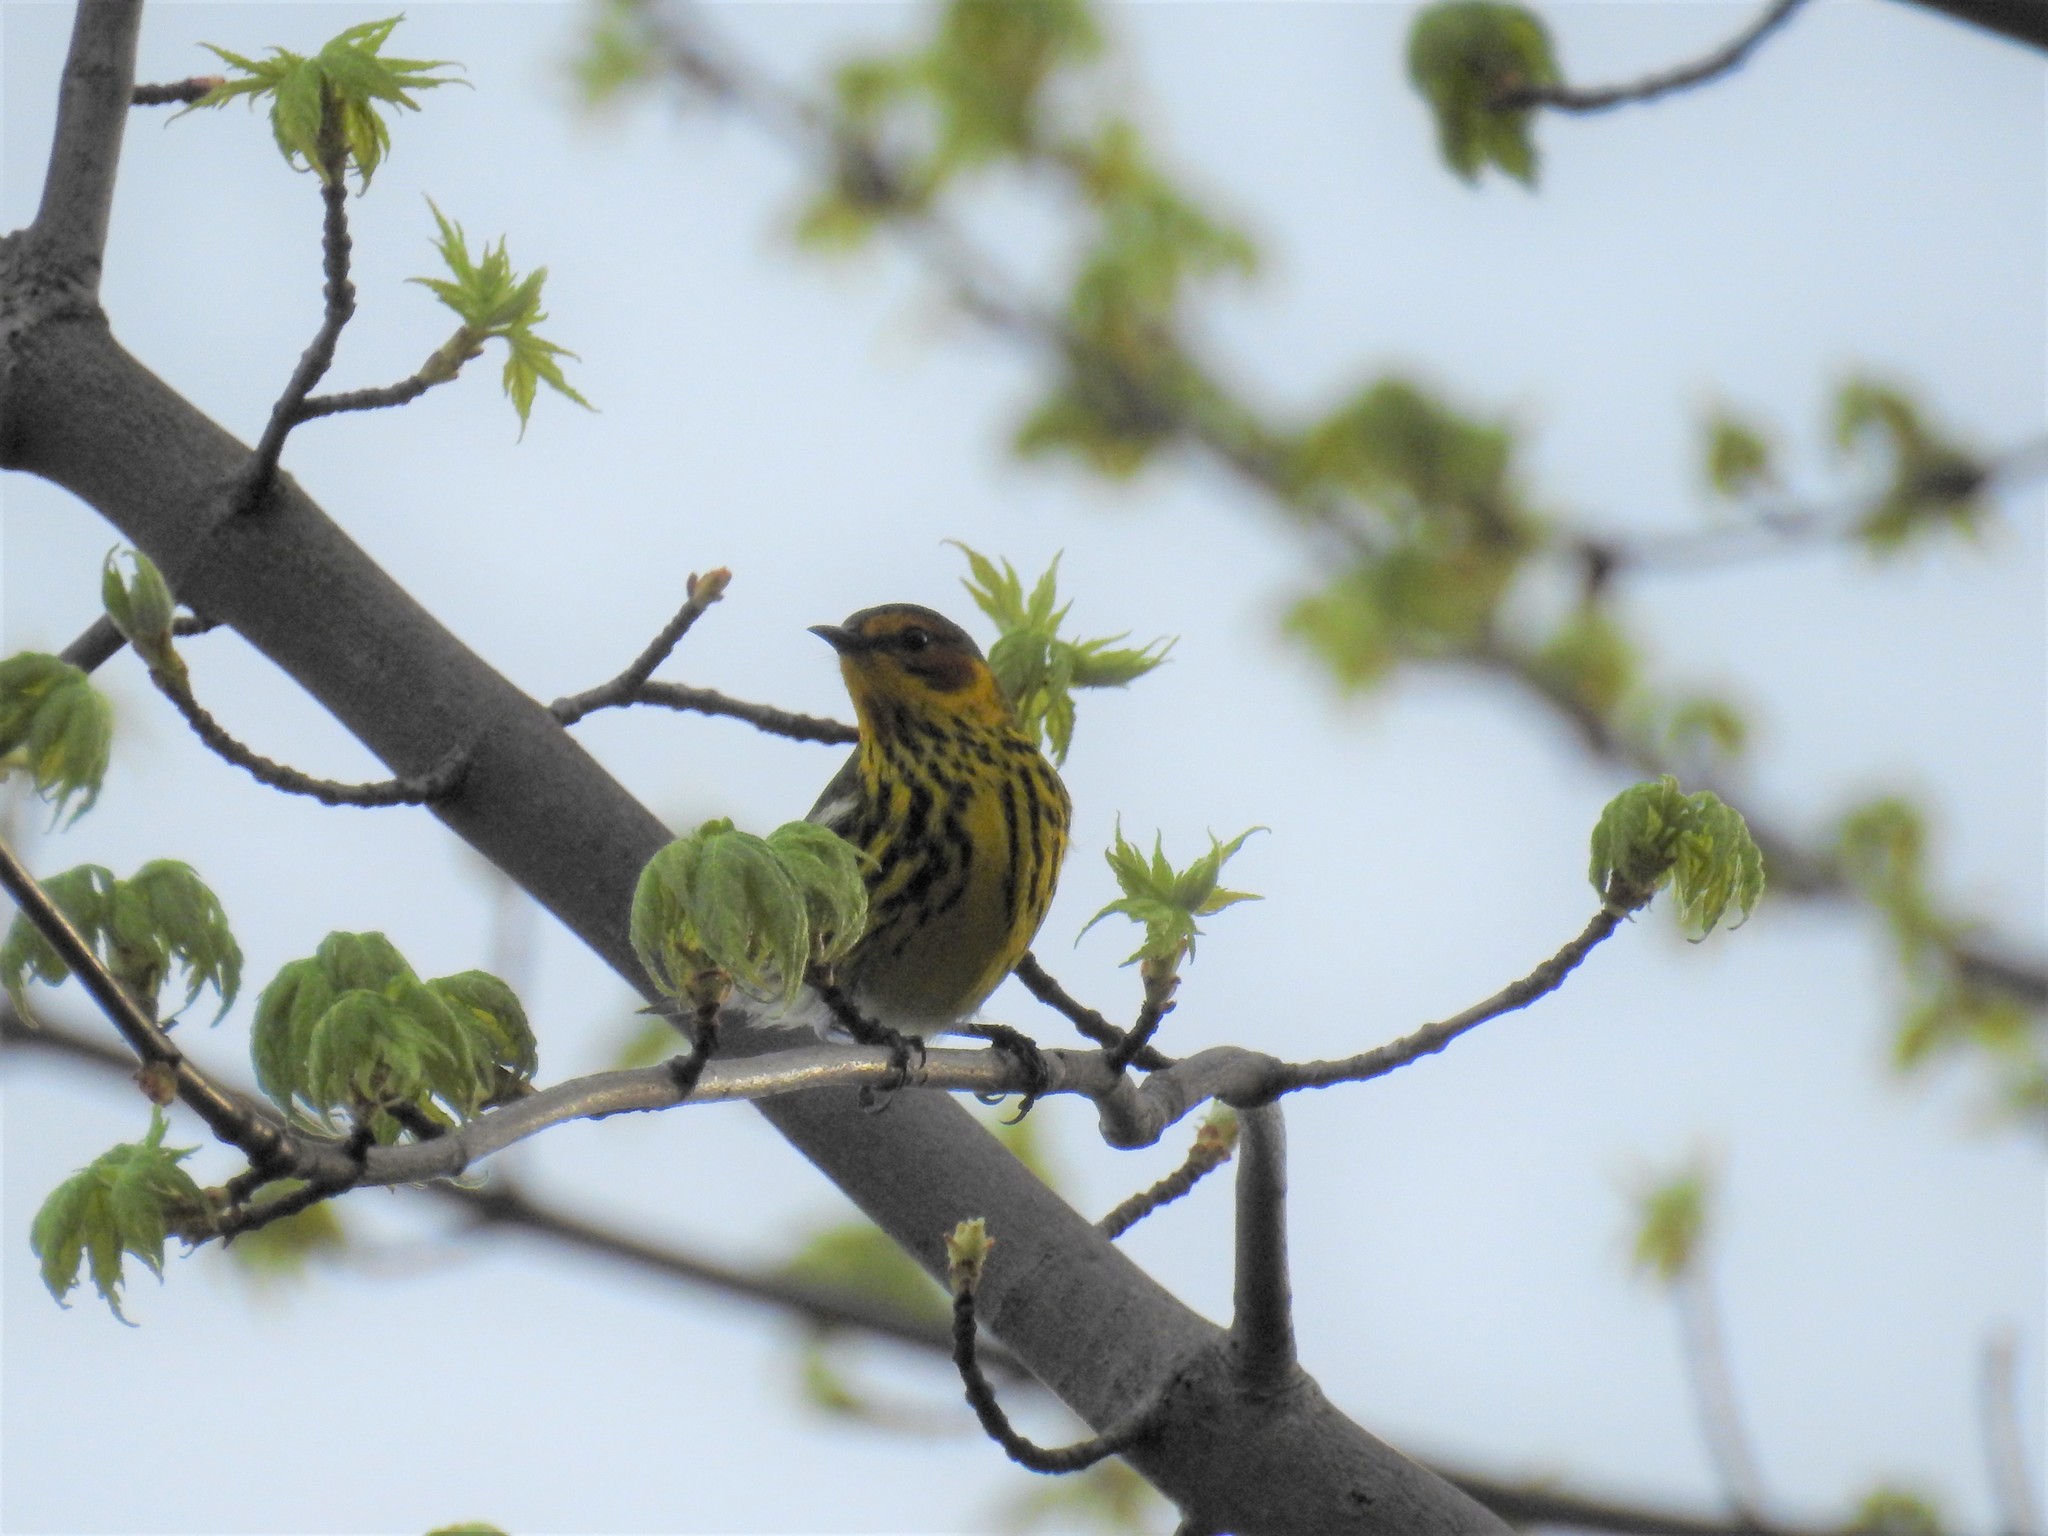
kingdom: Animalia
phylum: Chordata
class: Aves
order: Passeriformes
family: Parulidae
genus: Setophaga
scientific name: Setophaga tigrina
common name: Cape may warbler
